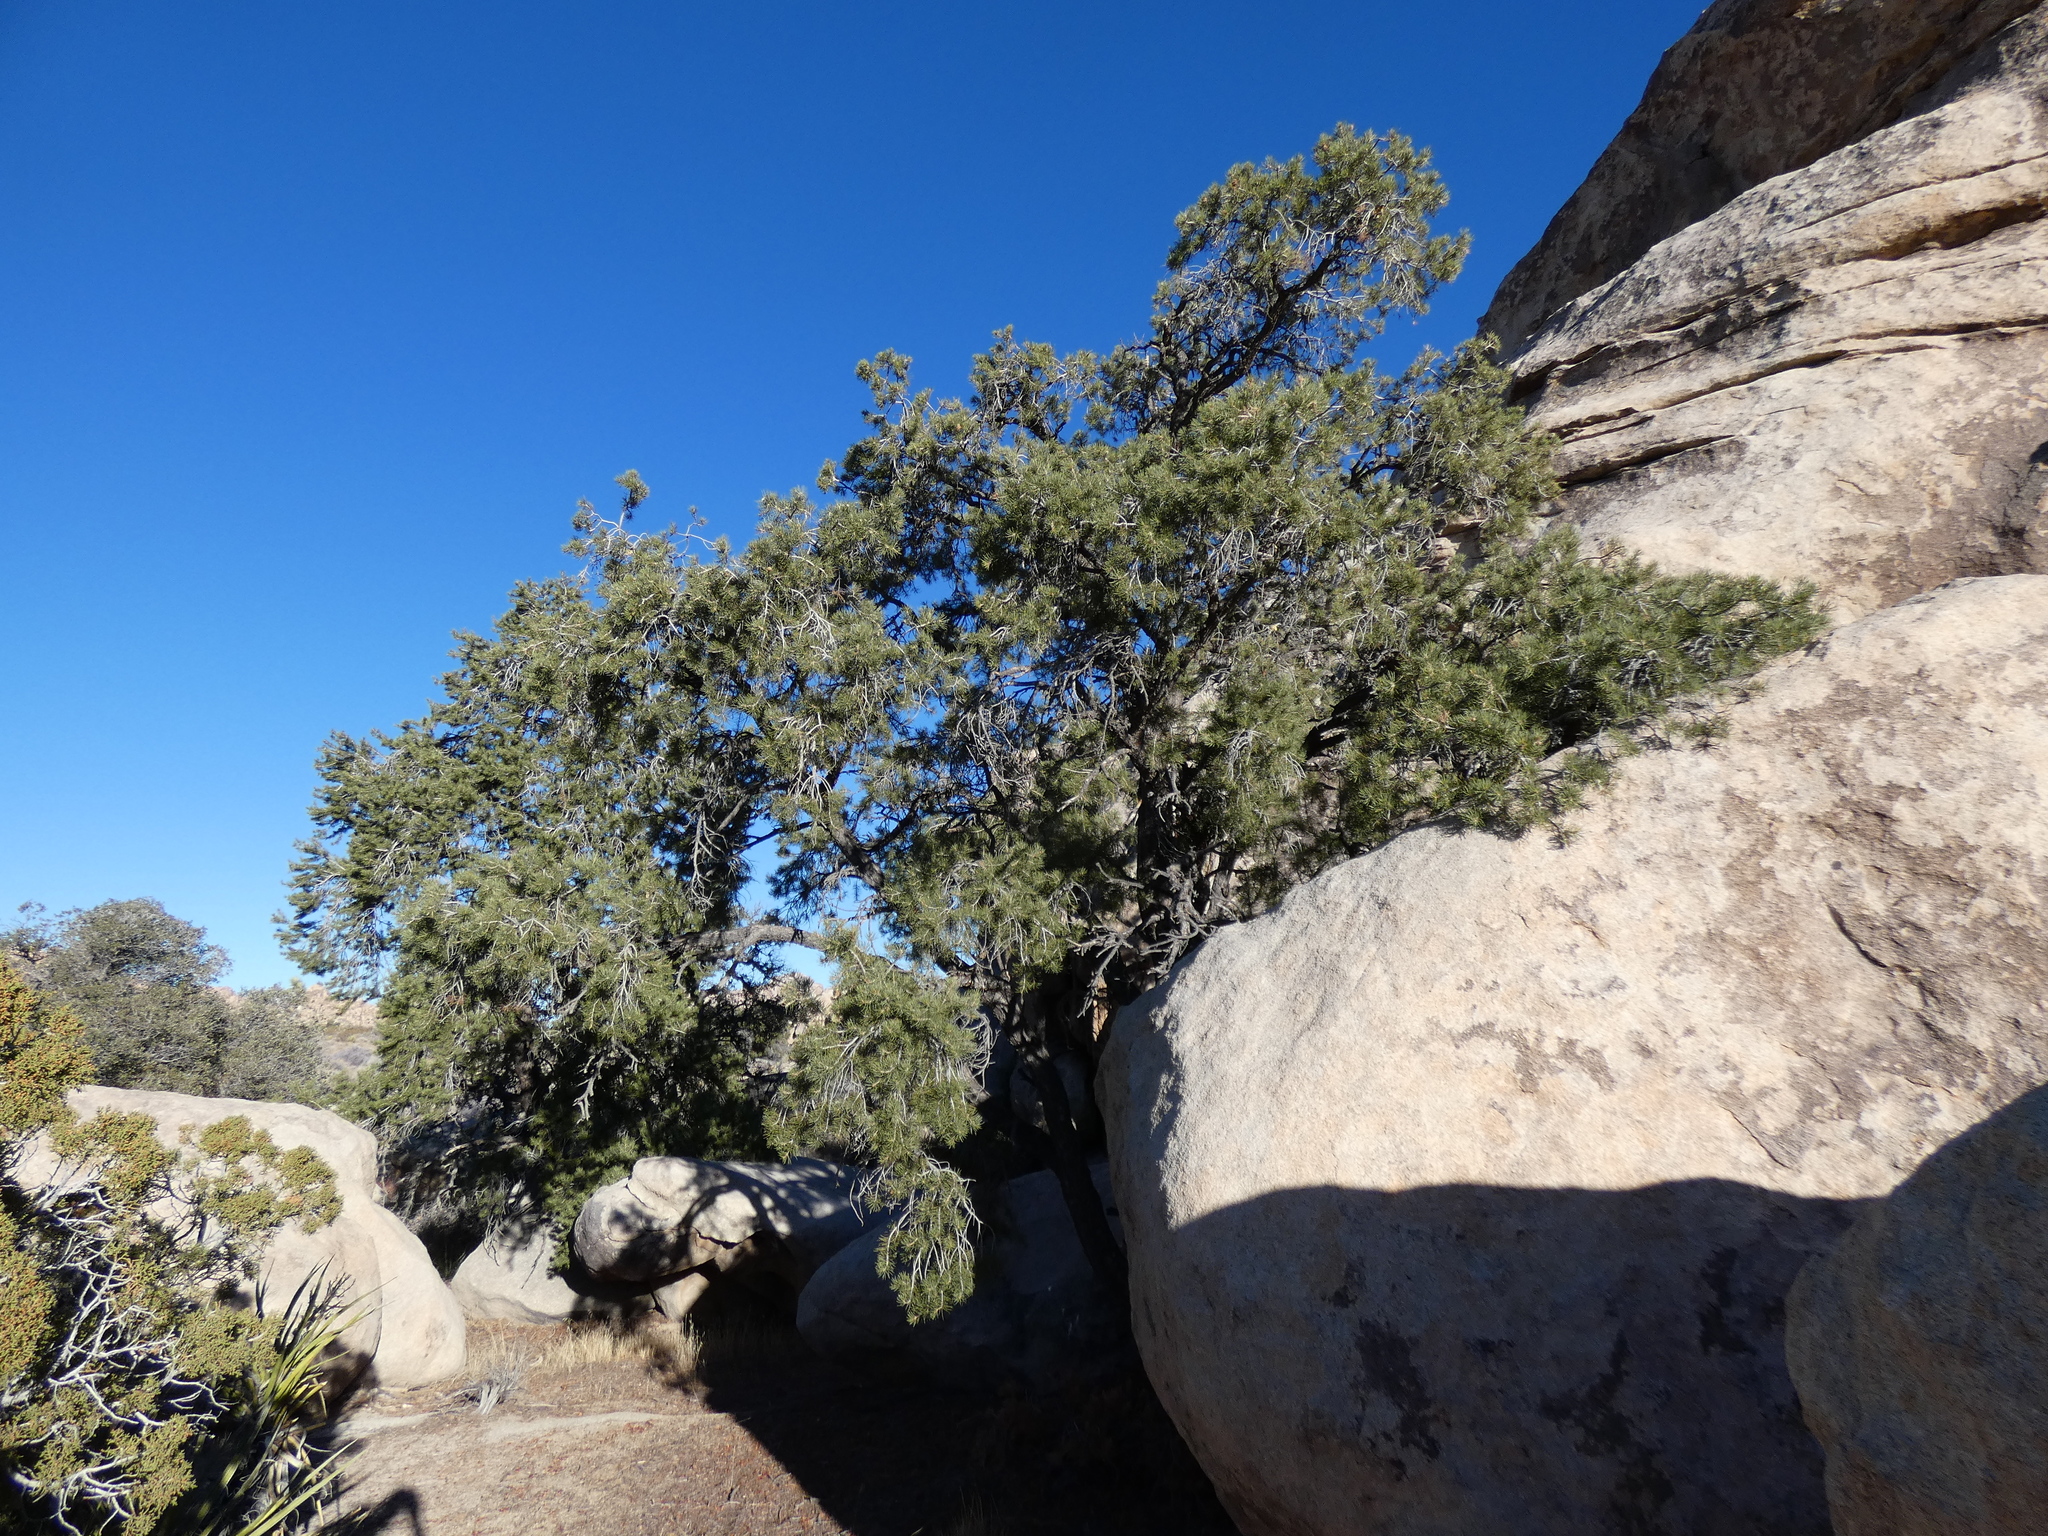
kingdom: Plantae
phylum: Tracheophyta
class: Pinopsida
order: Pinales
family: Pinaceae
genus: Pinus
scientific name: Pinus monophylla
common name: One-leaved nut pine
